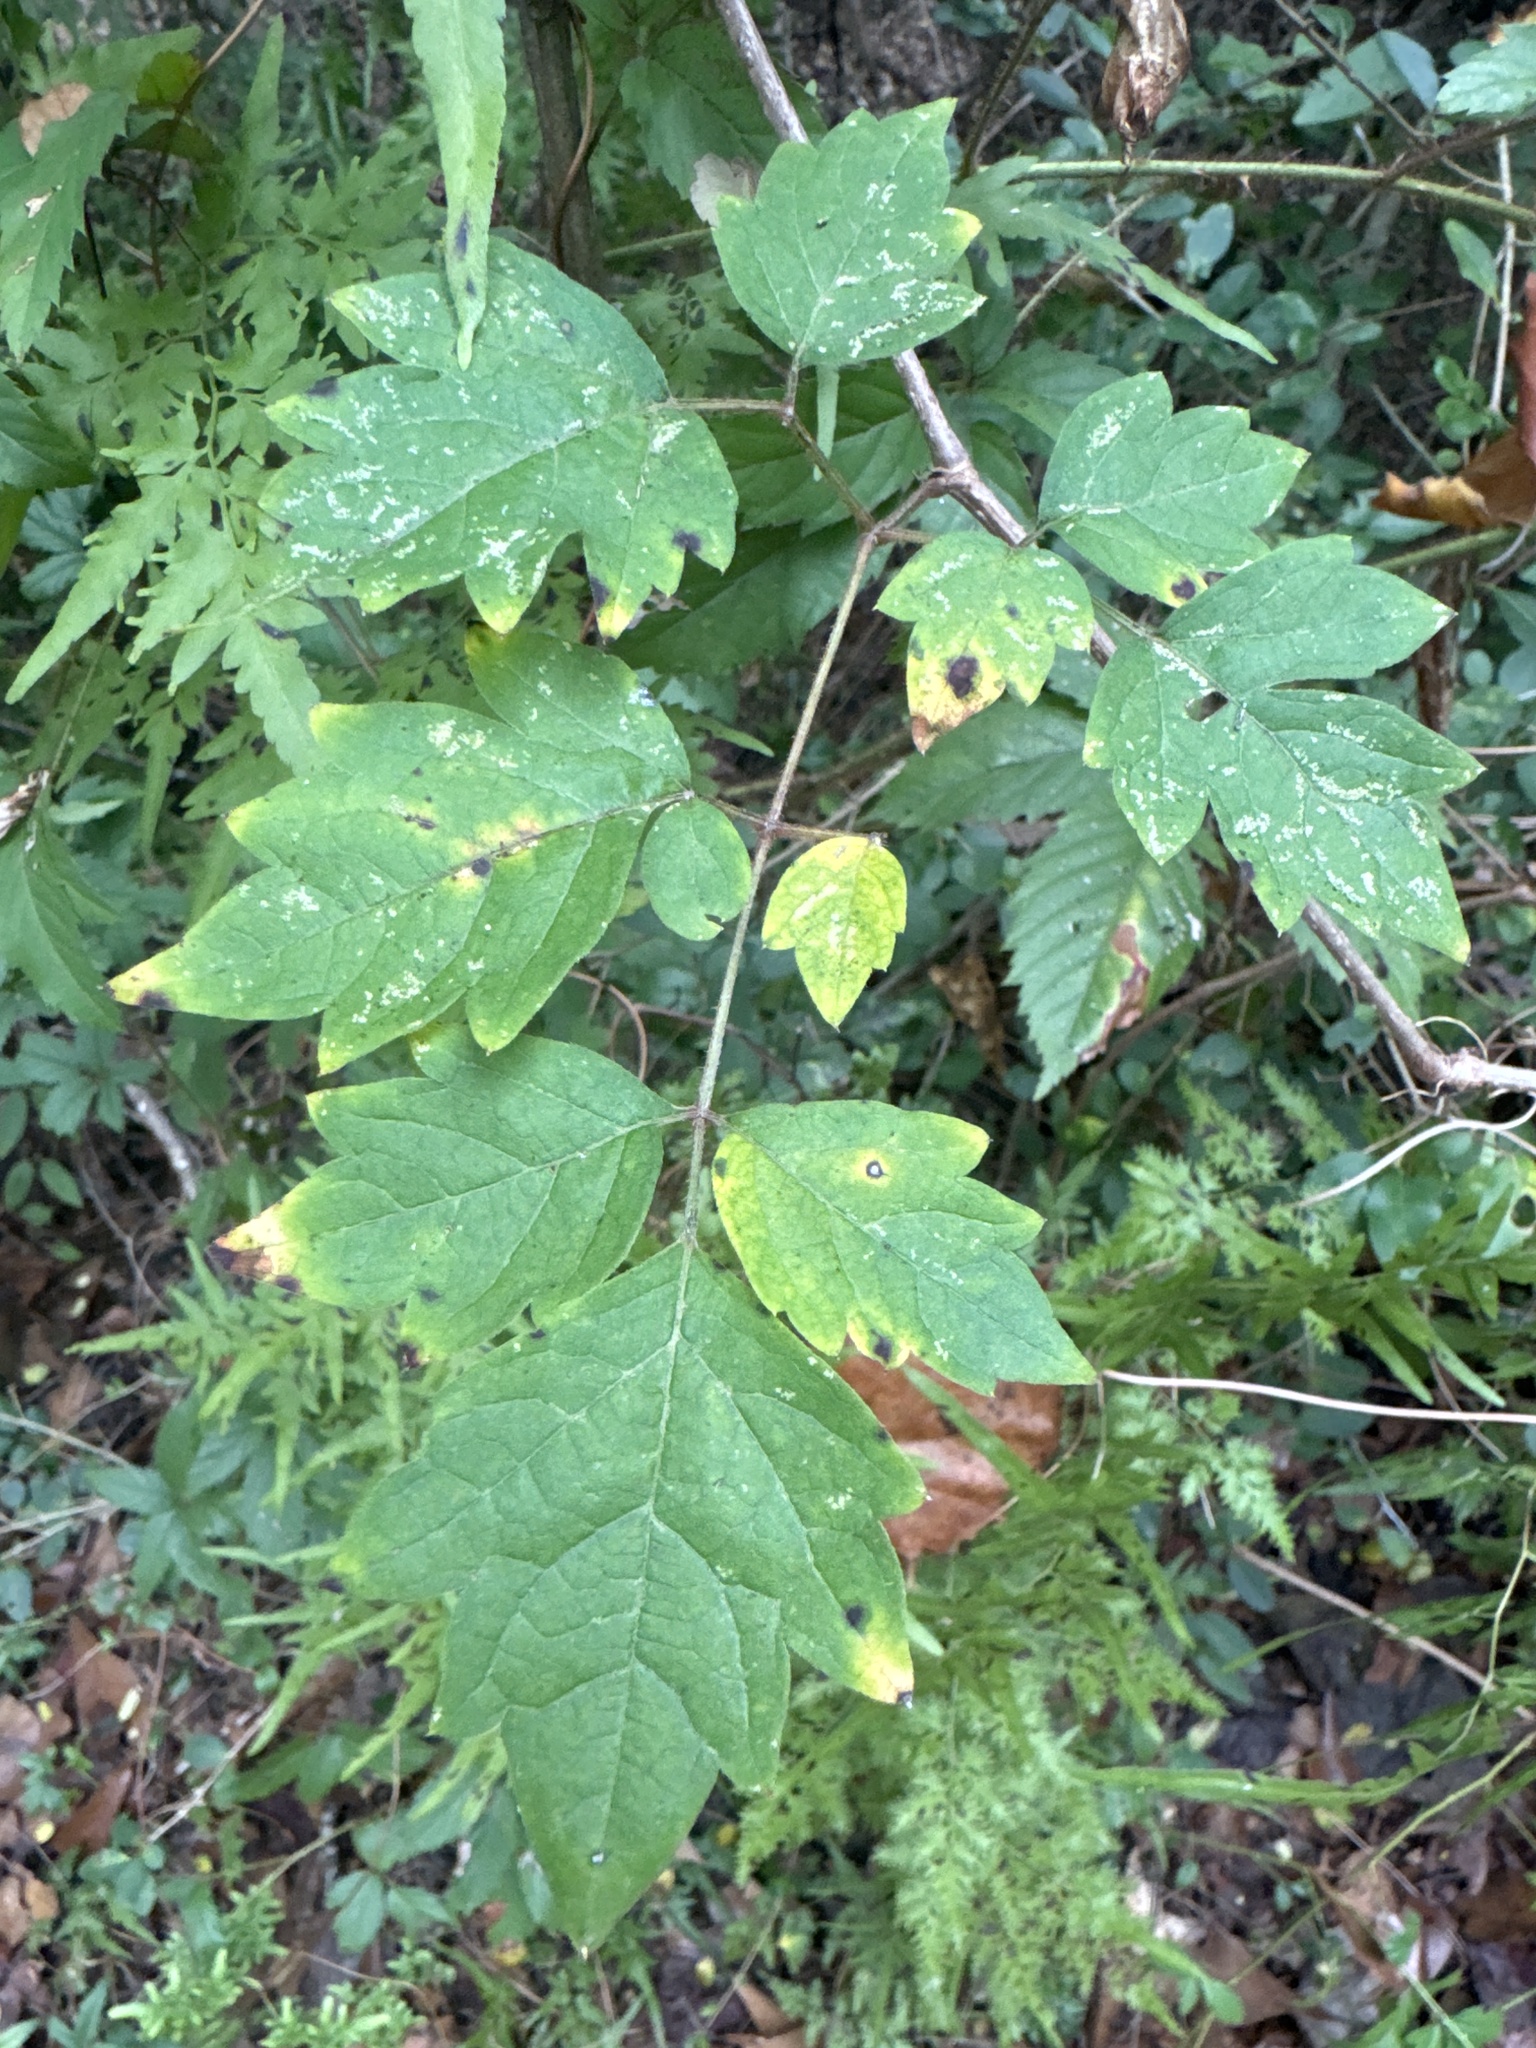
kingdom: Plantae
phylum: Tracheophyta
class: Magnoliopsida
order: Vitales
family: Vitaceae
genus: Nekemias
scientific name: Nekemias arborea
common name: Peppervine
